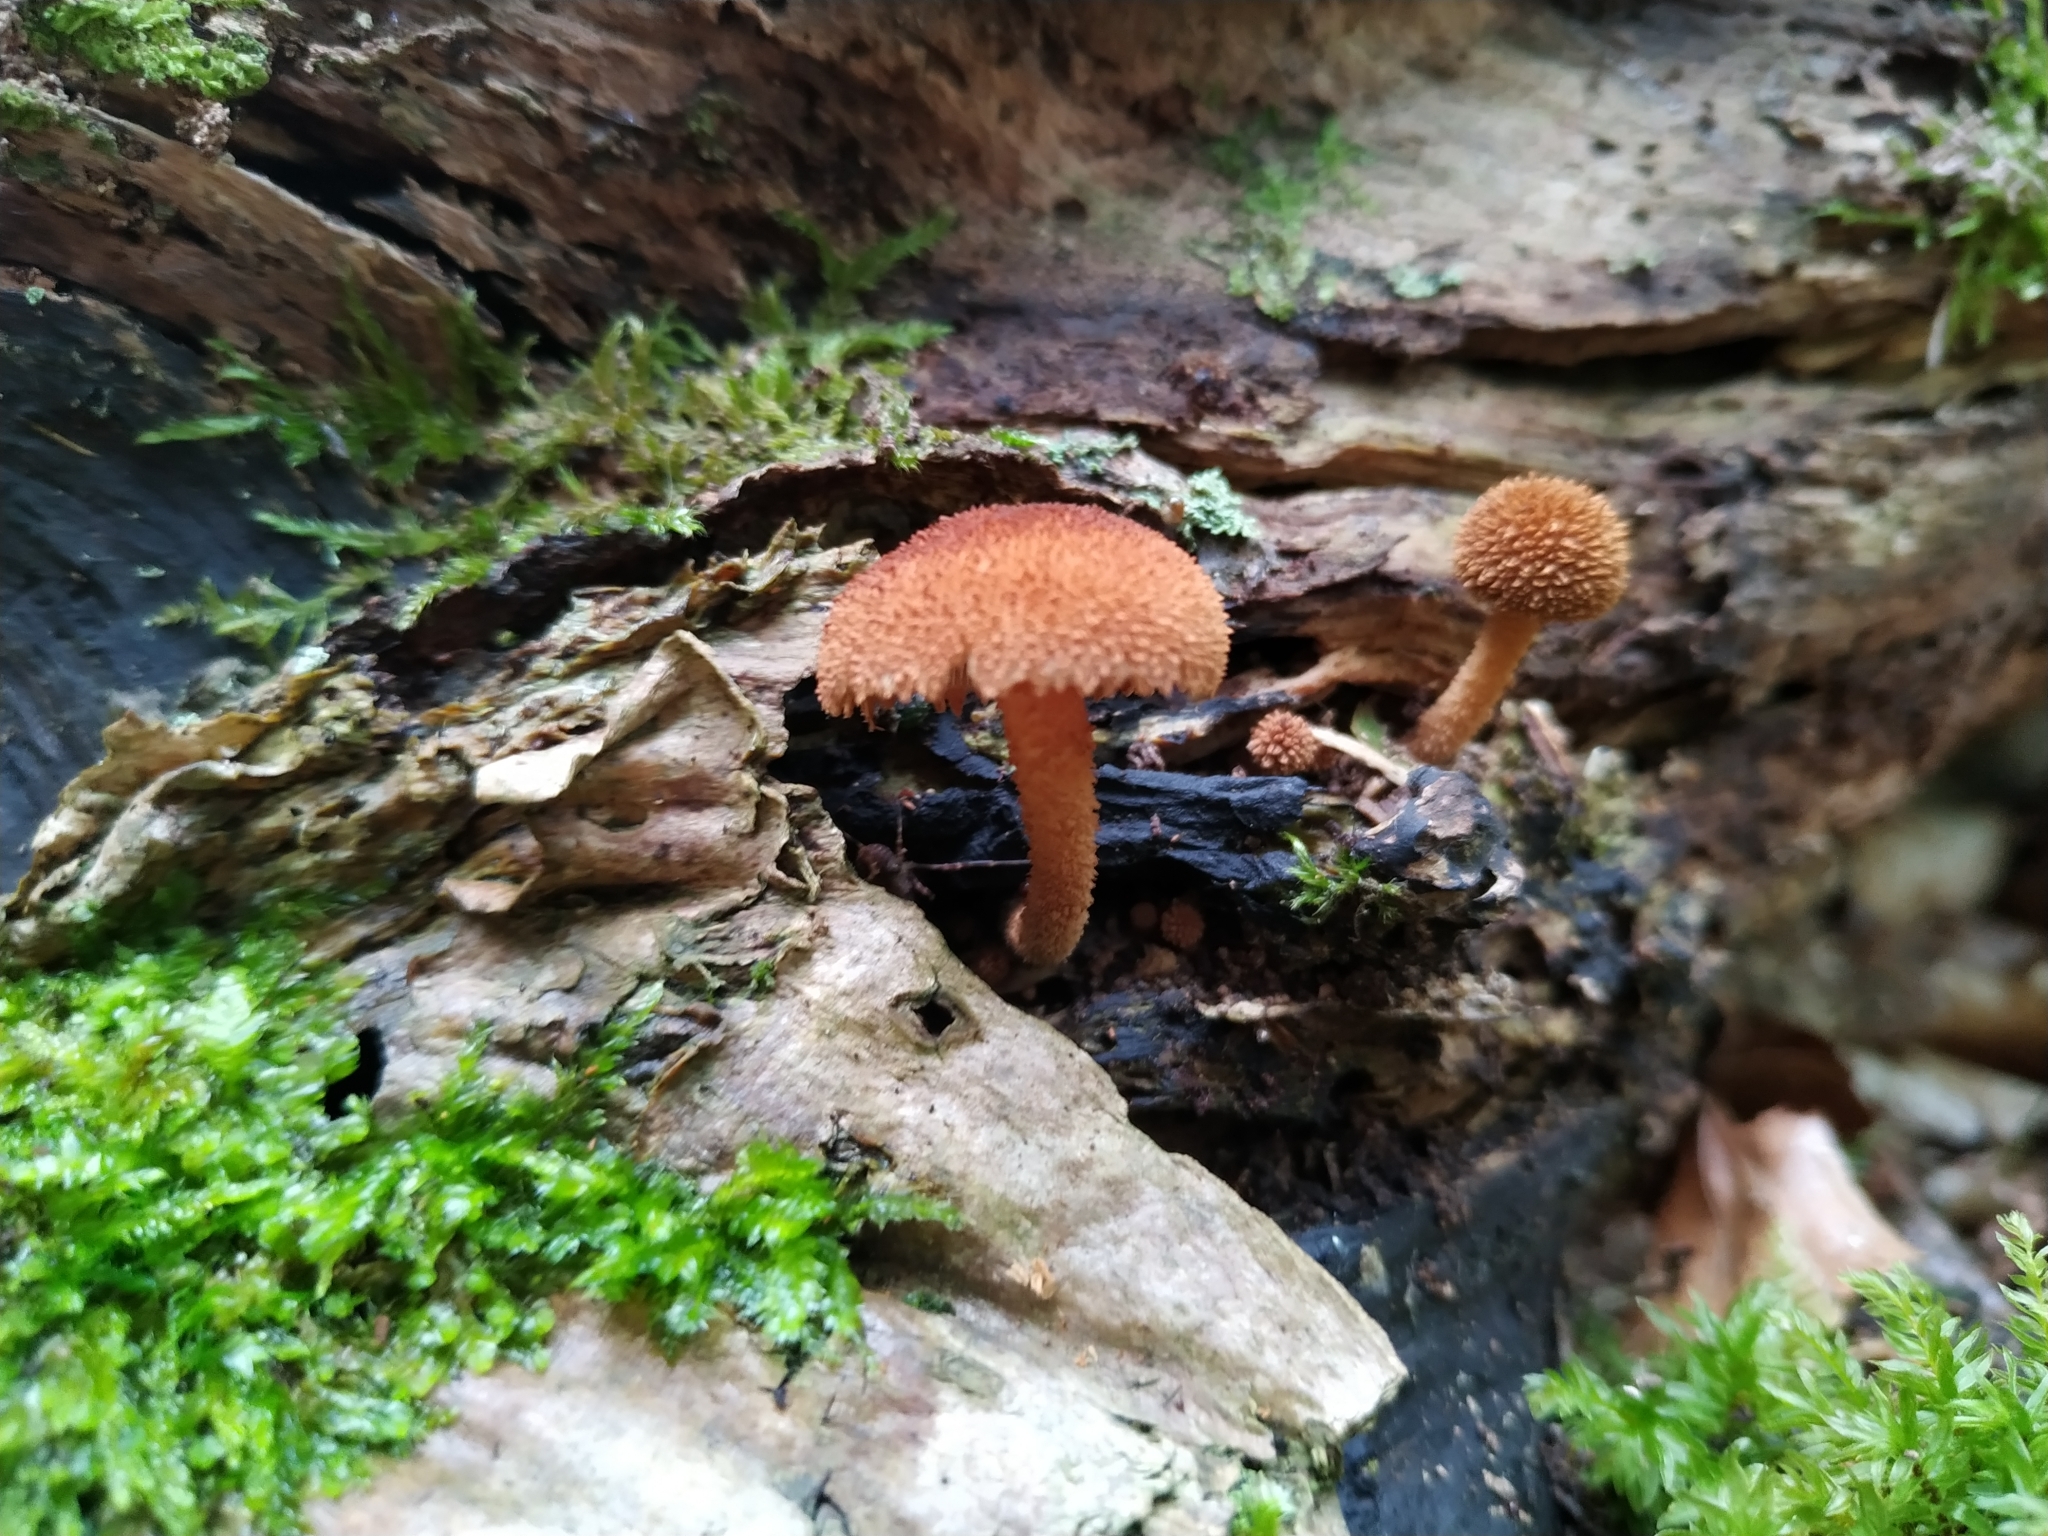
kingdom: Fungi
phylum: Basidiomycota
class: Agaricomycetes
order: Agaricales
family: Tubariaceae
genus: Phaeomarasmius
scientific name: Phaeomarasmius erinaceus
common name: Hedgehog scalycap
